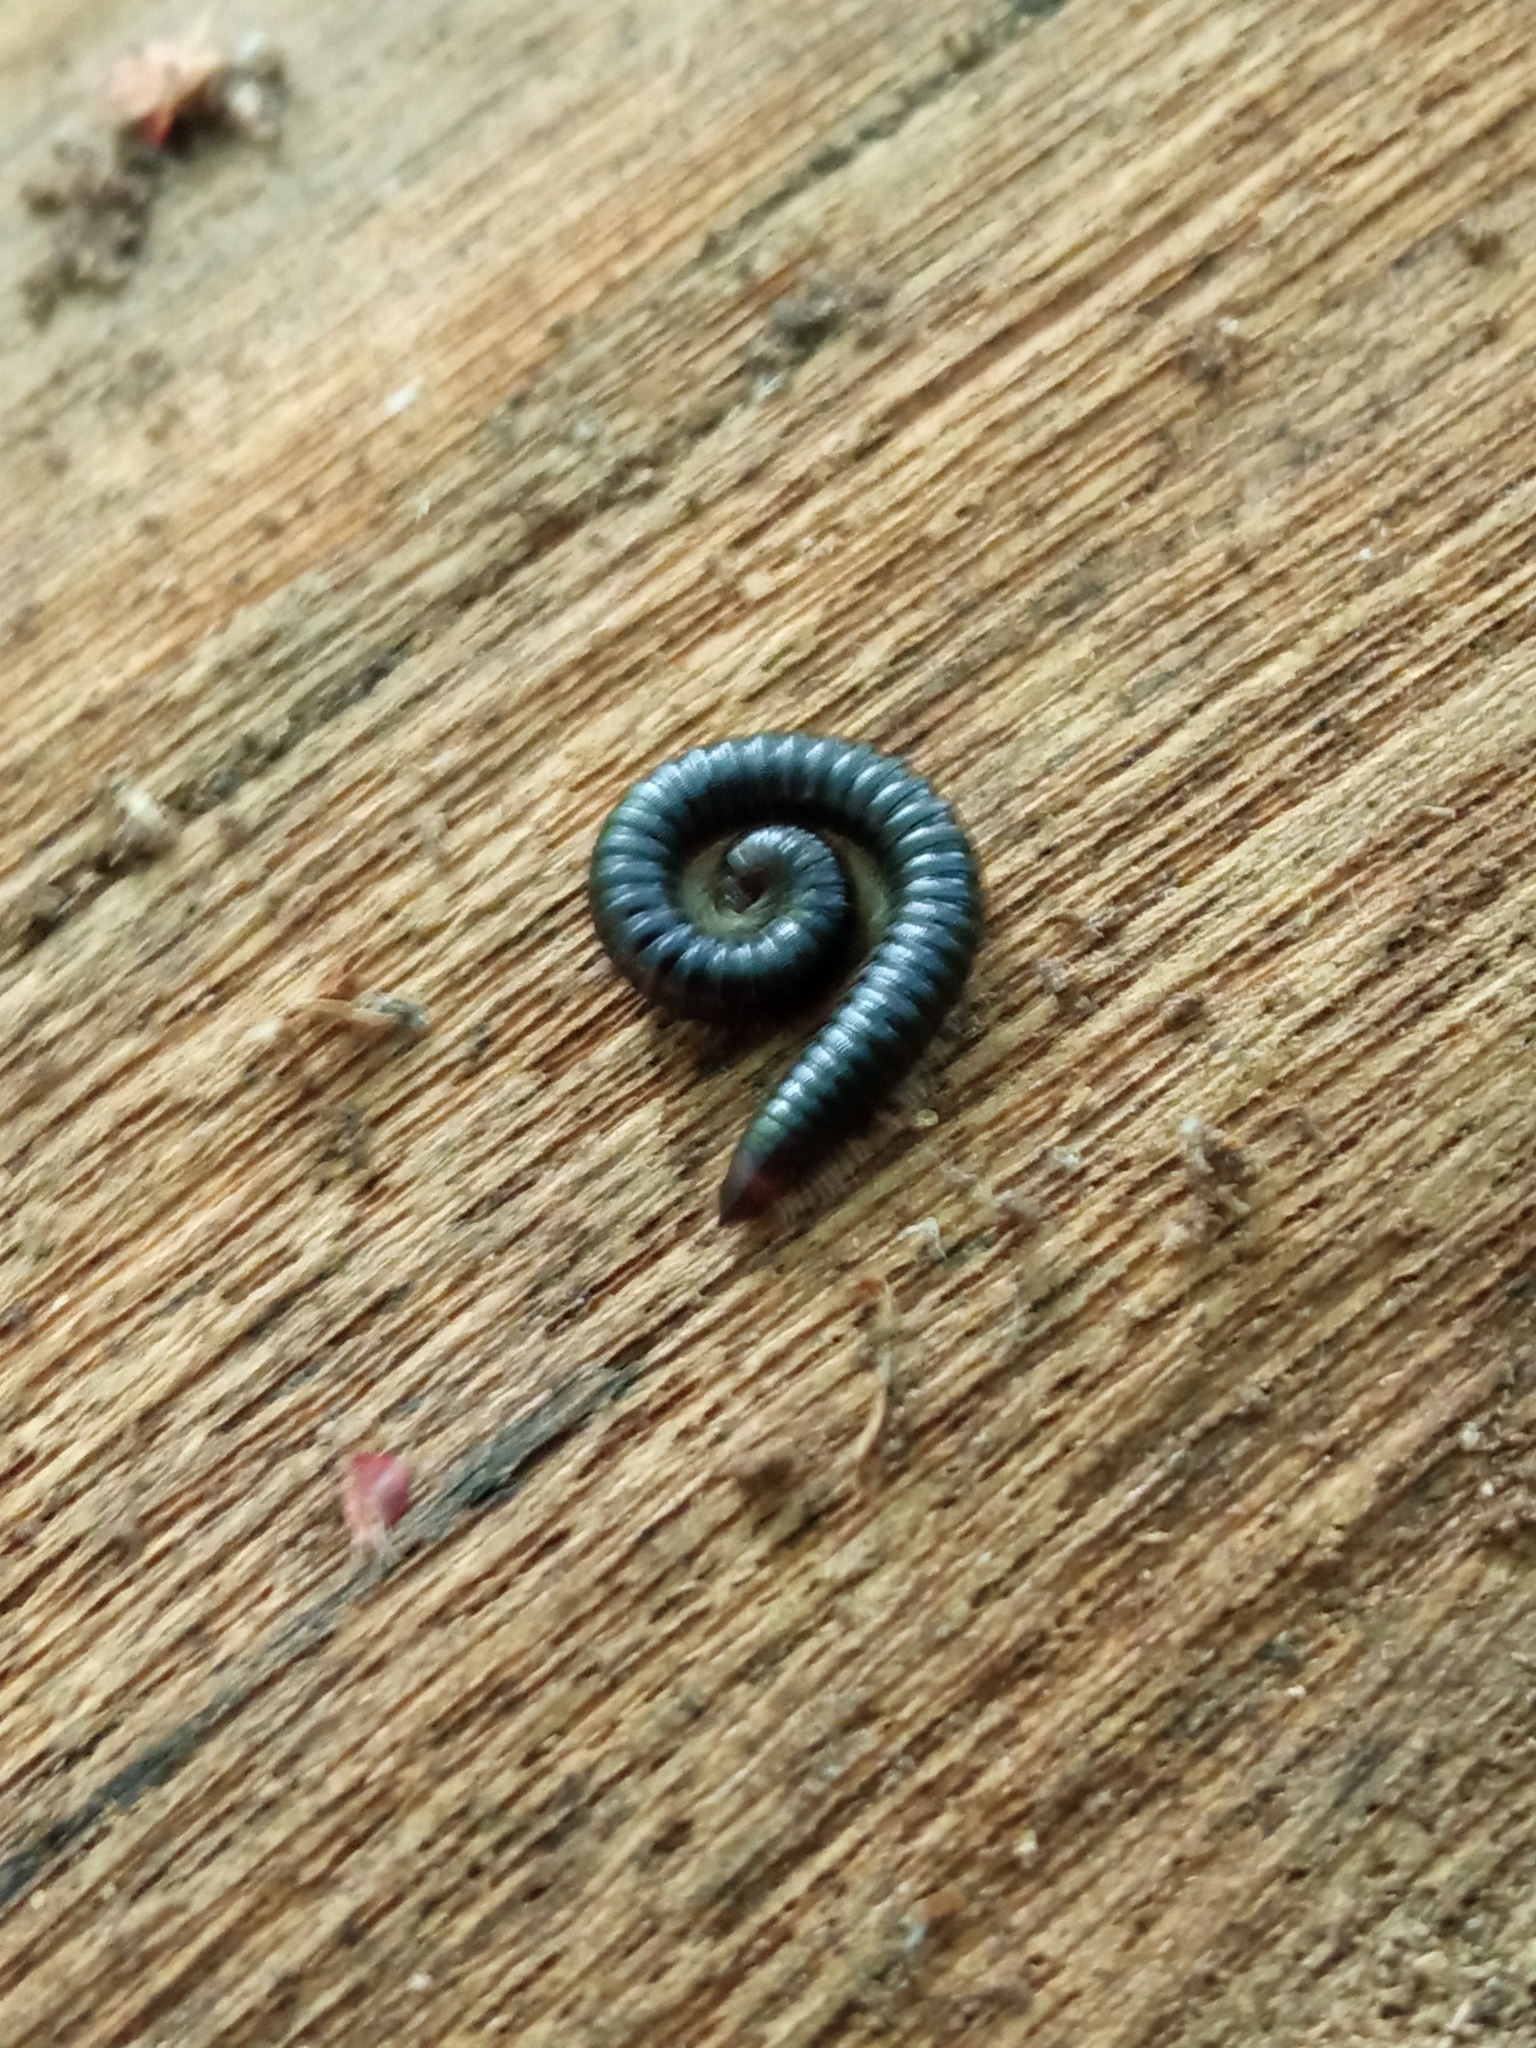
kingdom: Animalia
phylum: Arthropoda
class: Diplopoda
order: Julida
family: Julidae
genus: Tachypodoiulus
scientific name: Tachypodoiulus niger
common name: White-legged snake millipede
